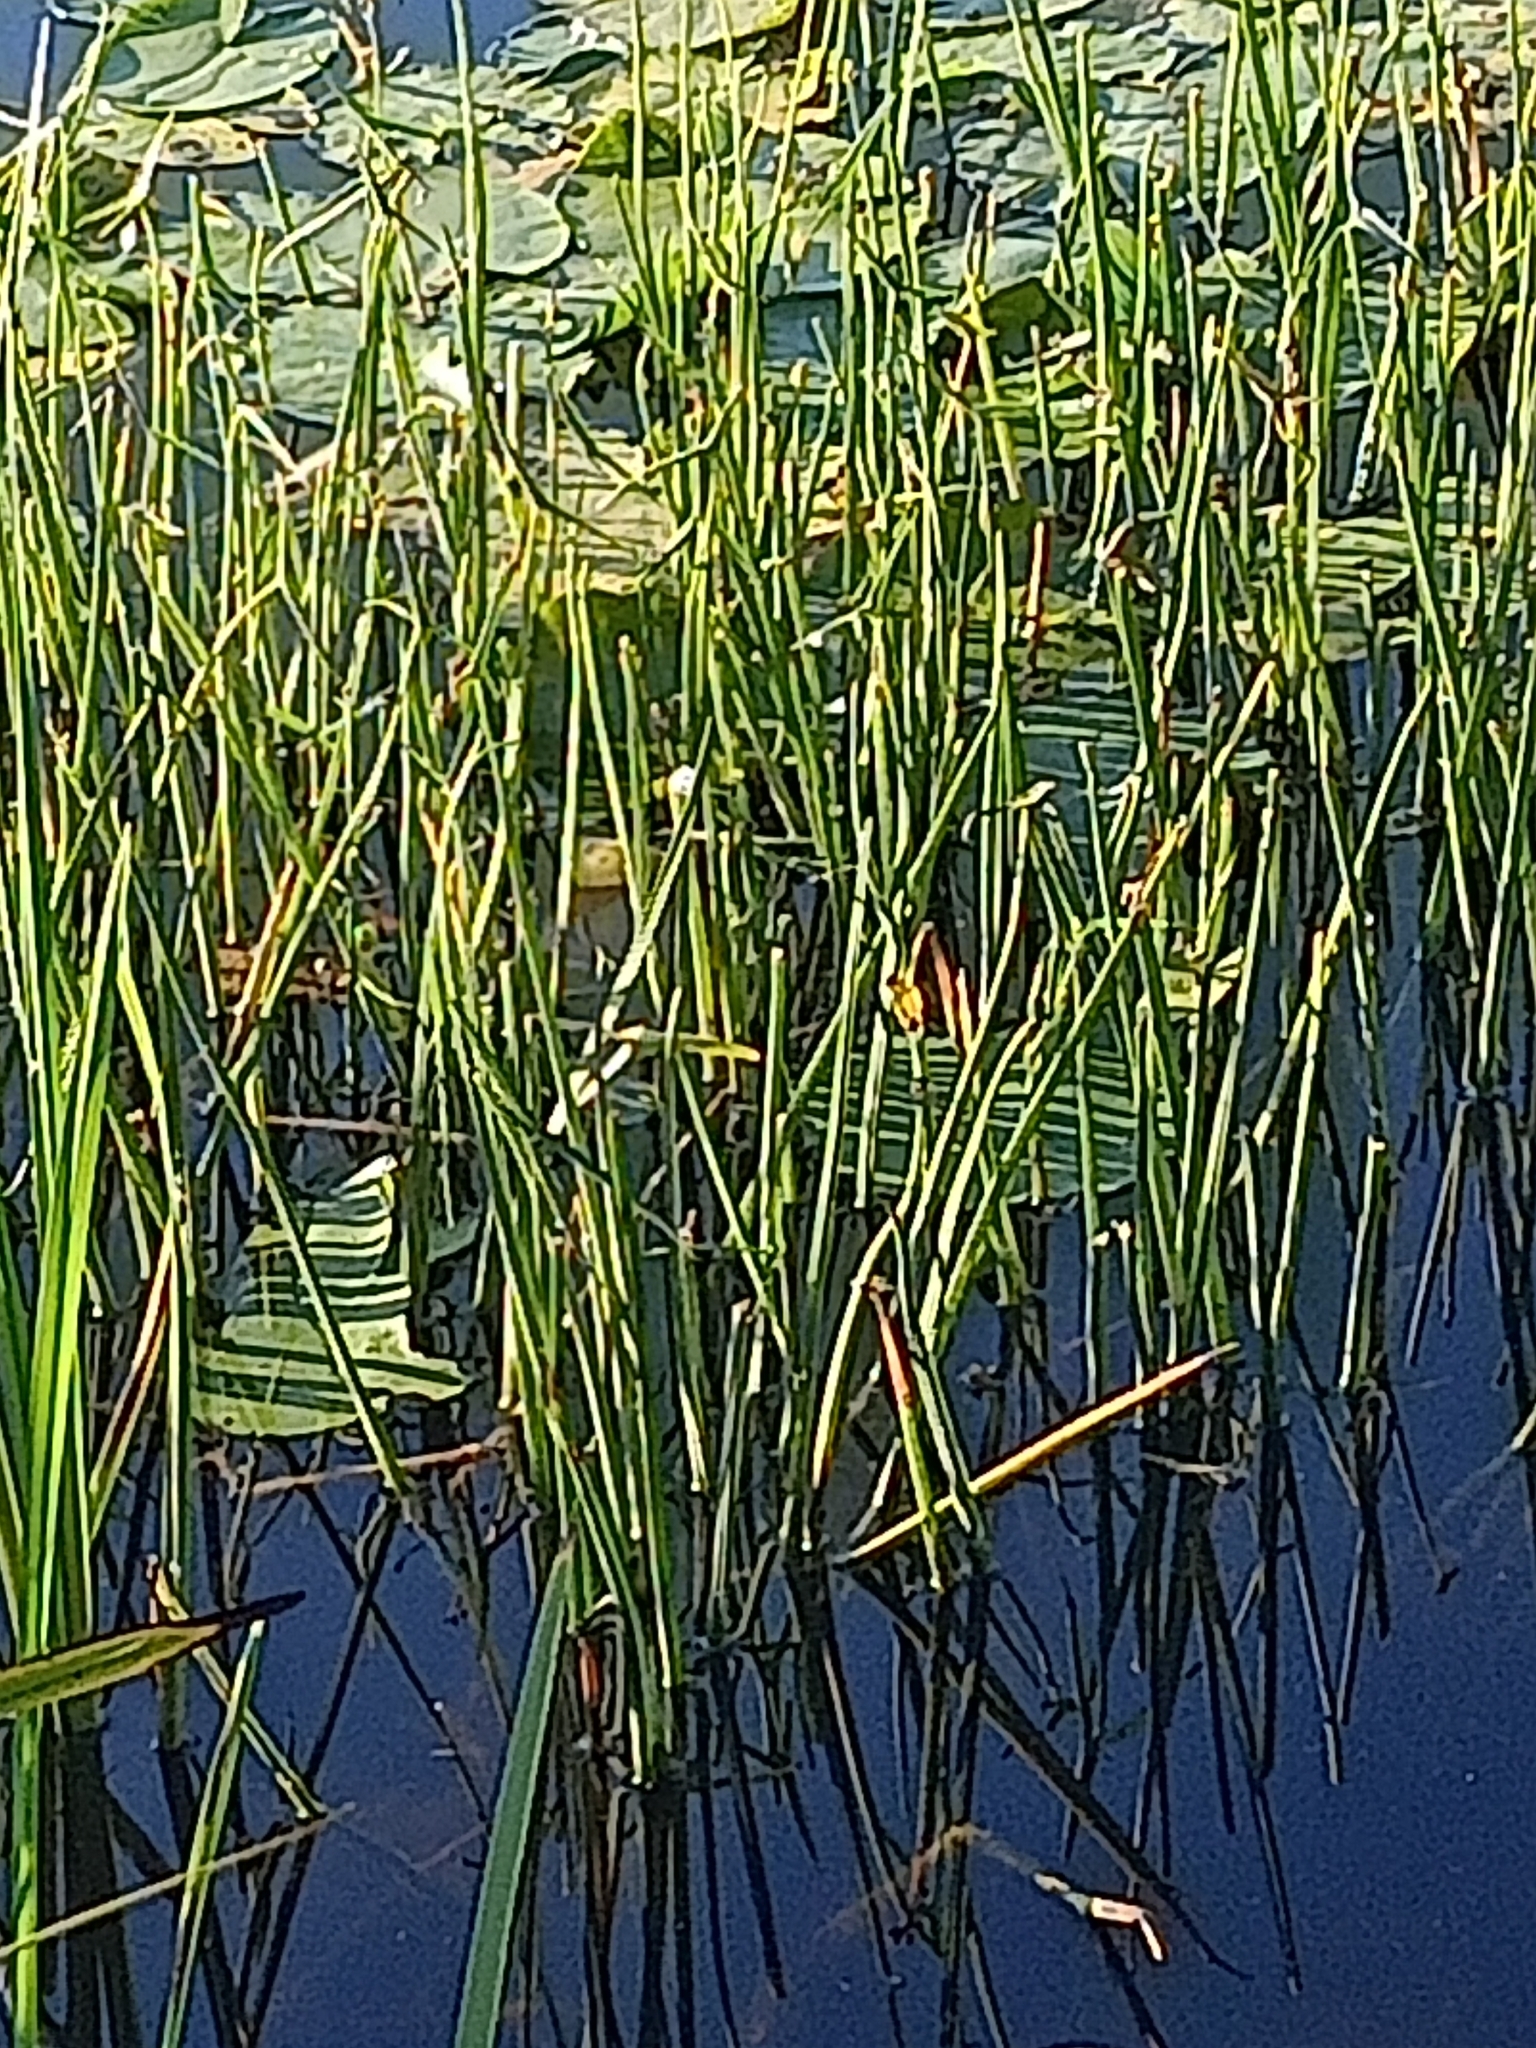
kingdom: Plantae
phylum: Tracheophyta
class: Liliopsida
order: Alismatales
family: Alismataceae
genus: Sagittaria
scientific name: Sagittaria sagittifolia
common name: Arrowhead
